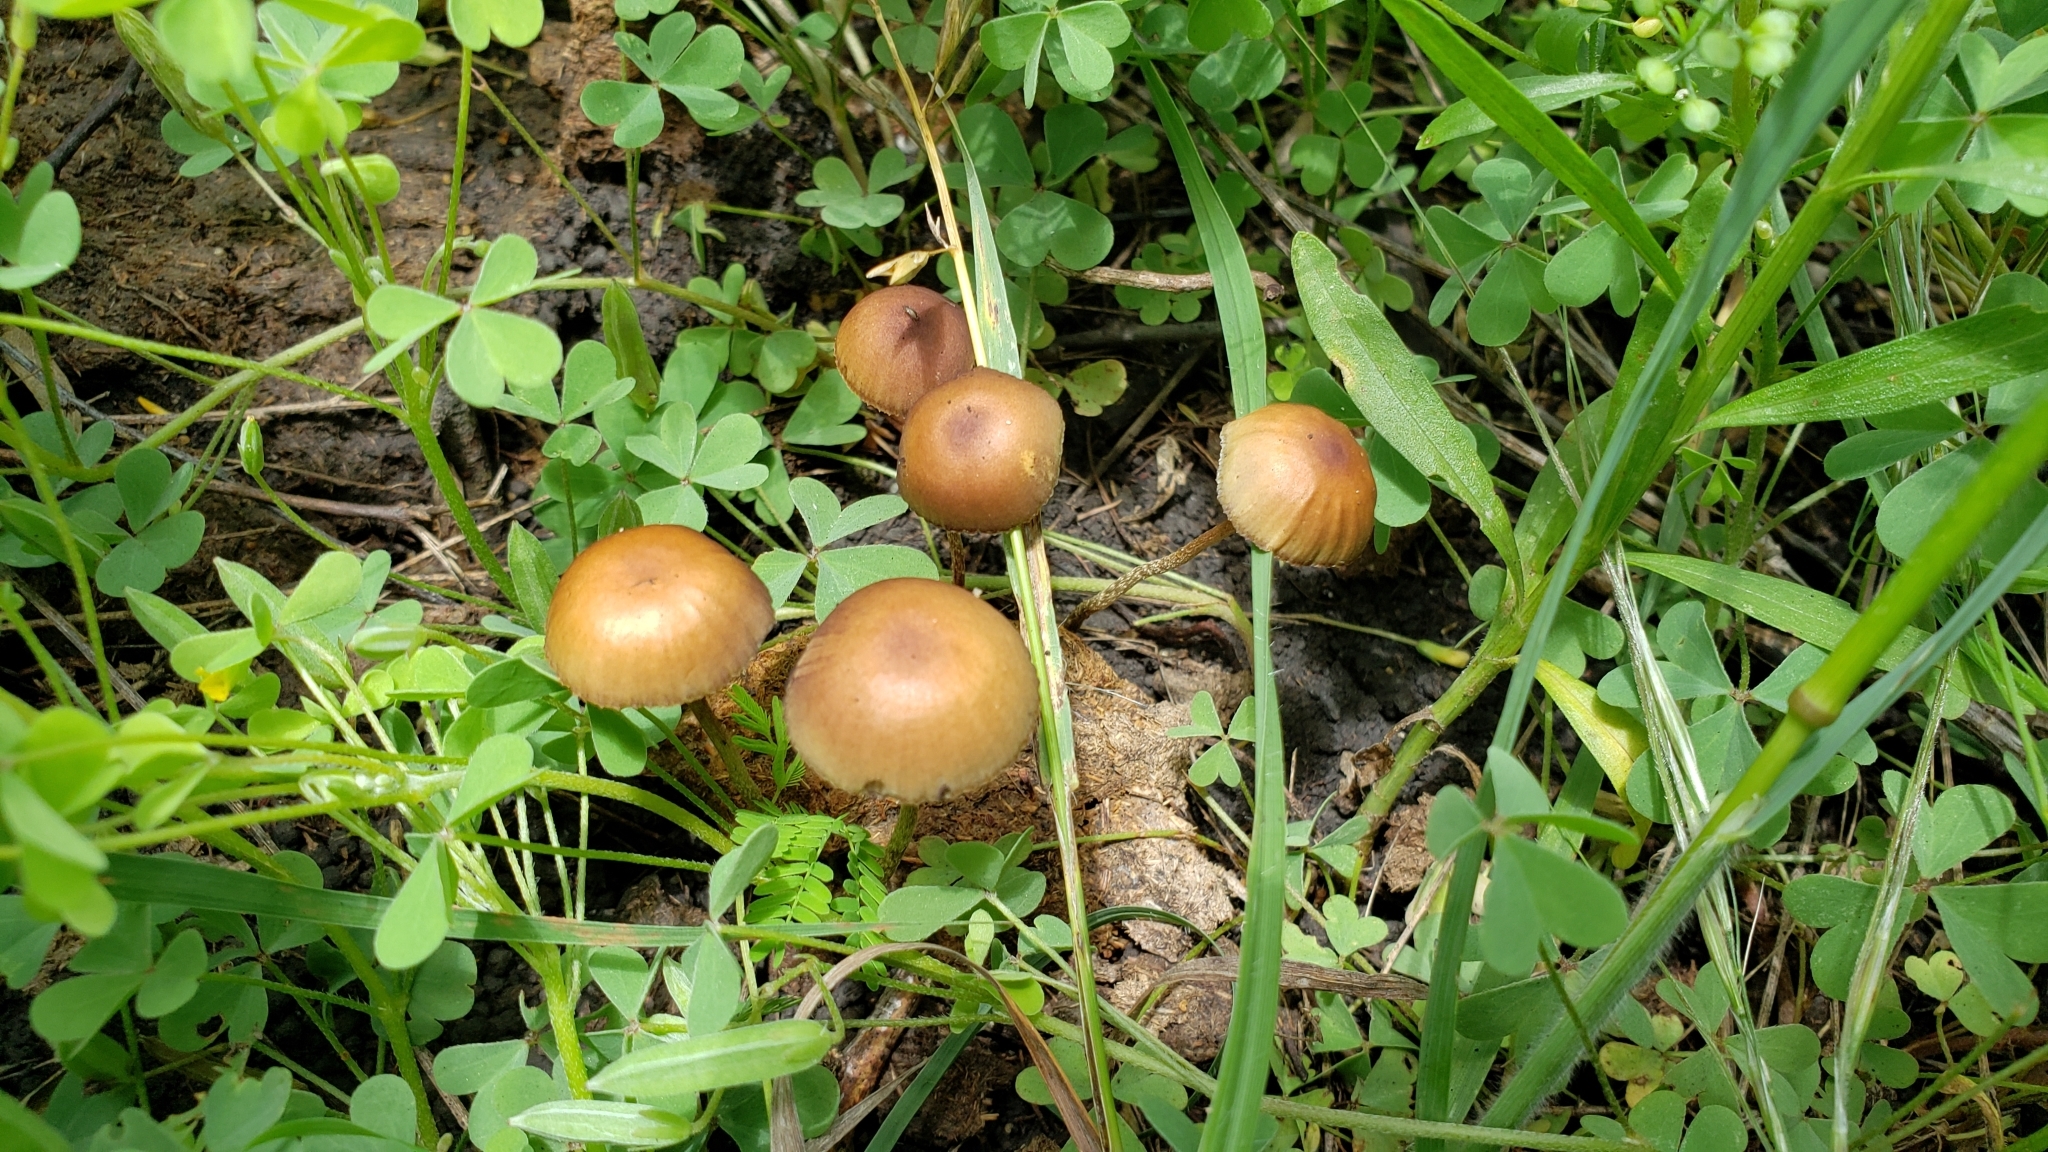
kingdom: Fungi
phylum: Basidiomycota
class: Agaricomycetes
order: Agaricales
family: Strophariaceae
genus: Deconica
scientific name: Deconica coprophila
